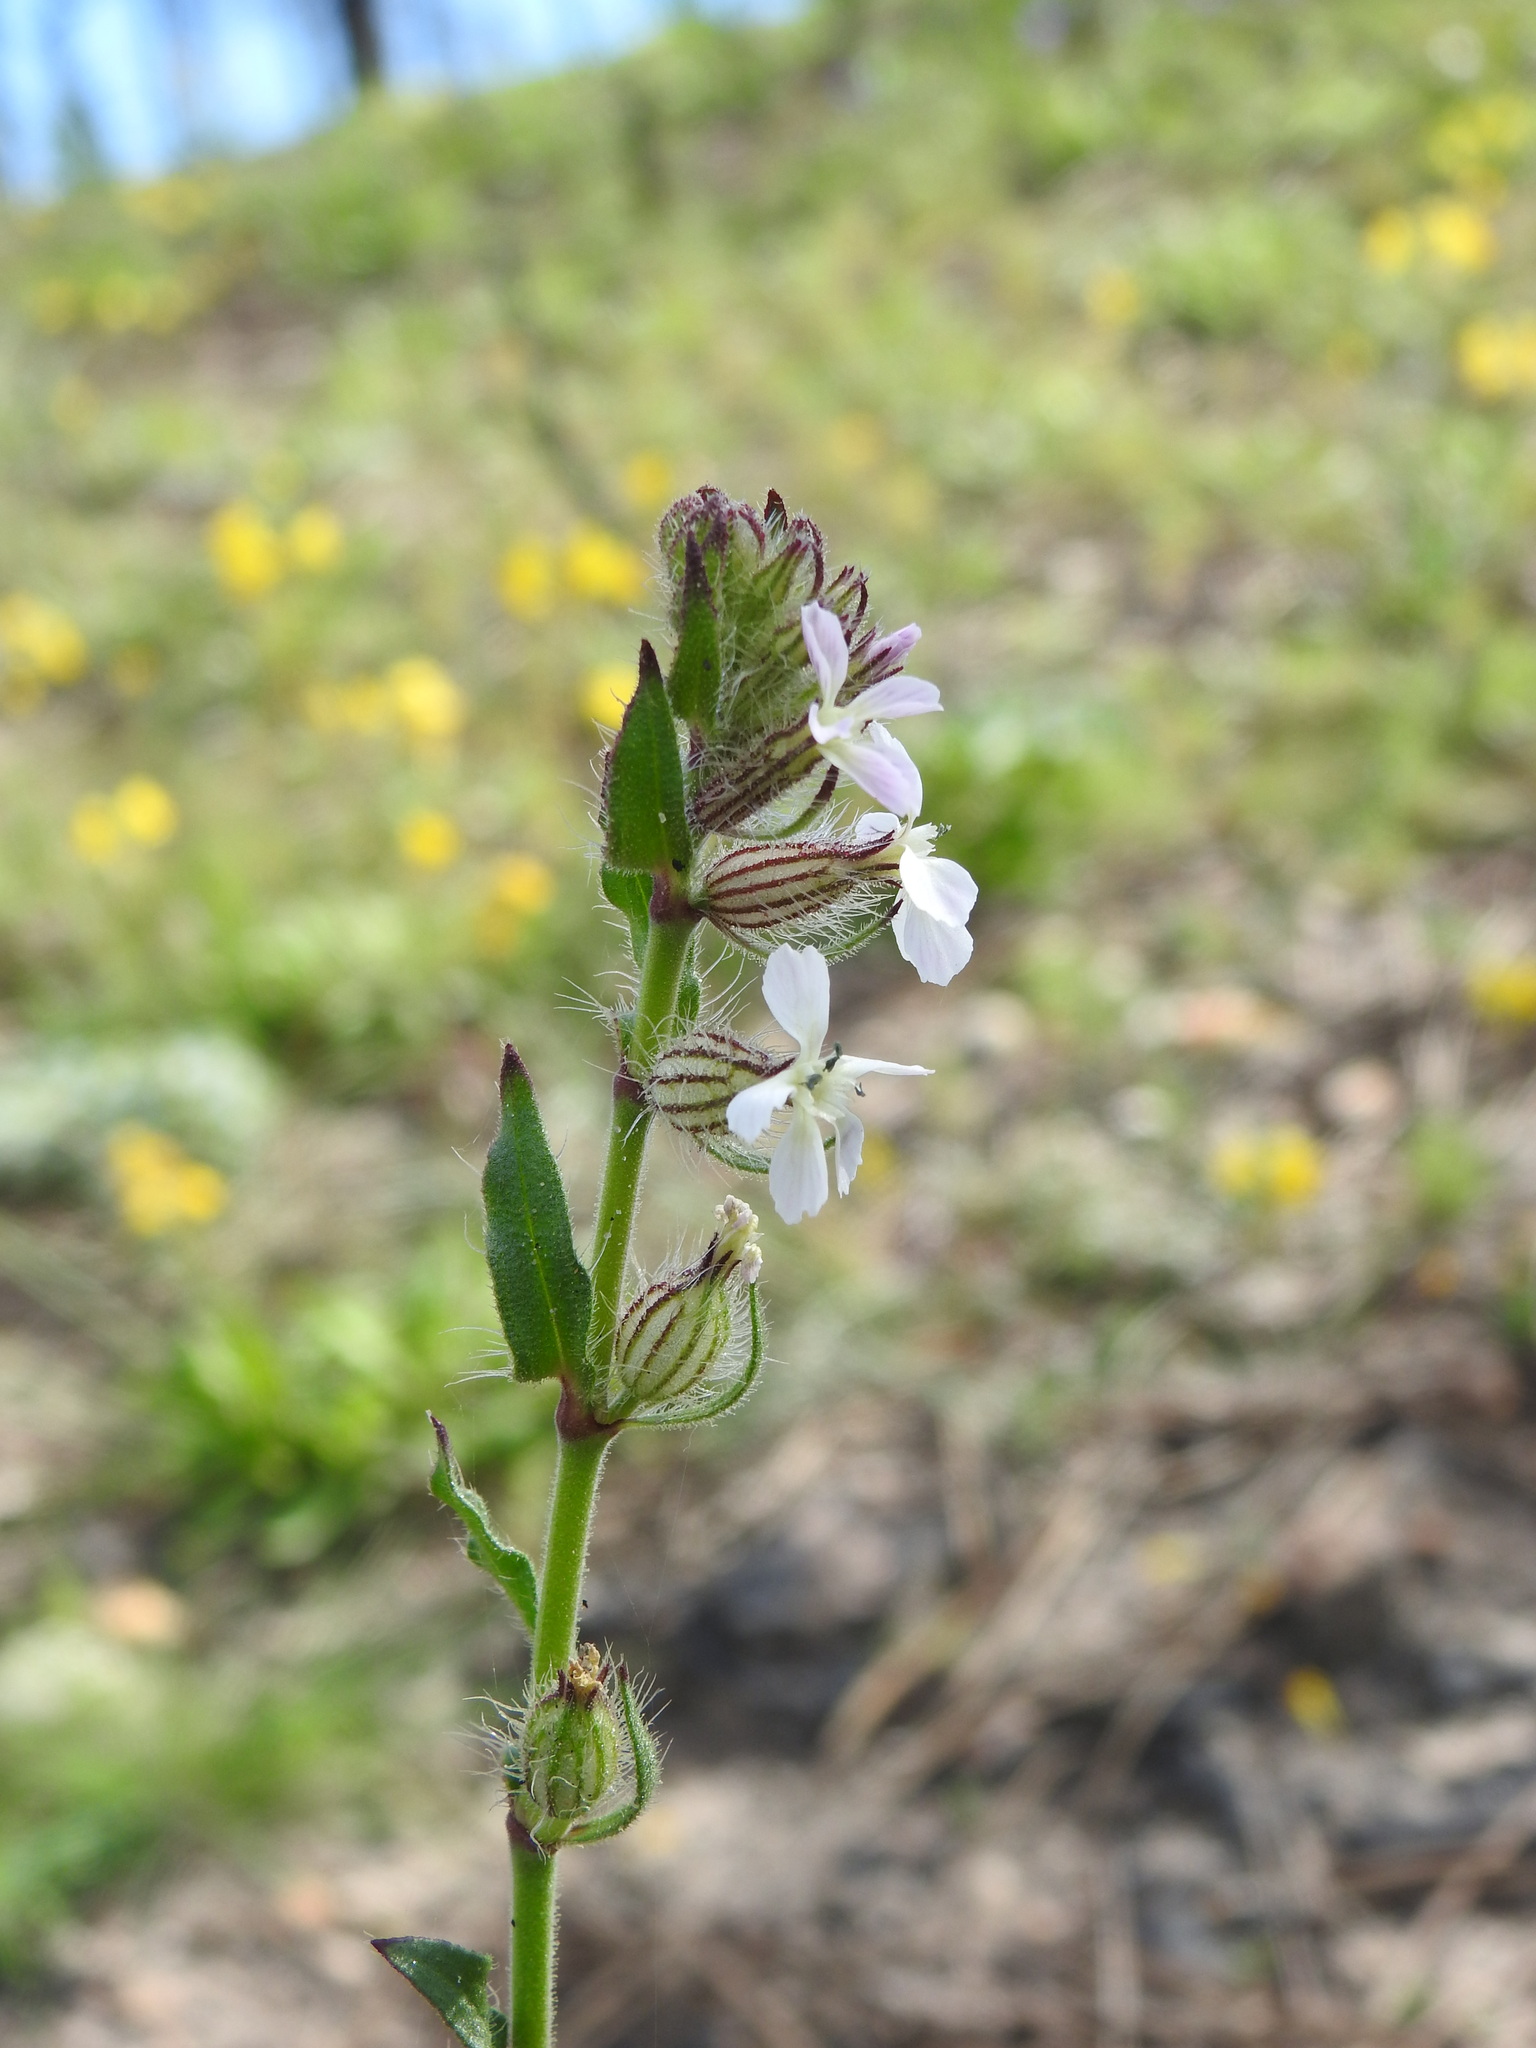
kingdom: Plantae
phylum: Tracheophyta
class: Magnoliopsida
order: Caryophyllales
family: Caryophyllaceae
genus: Silene
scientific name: Silene gallica
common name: Small-flowered catchfly
